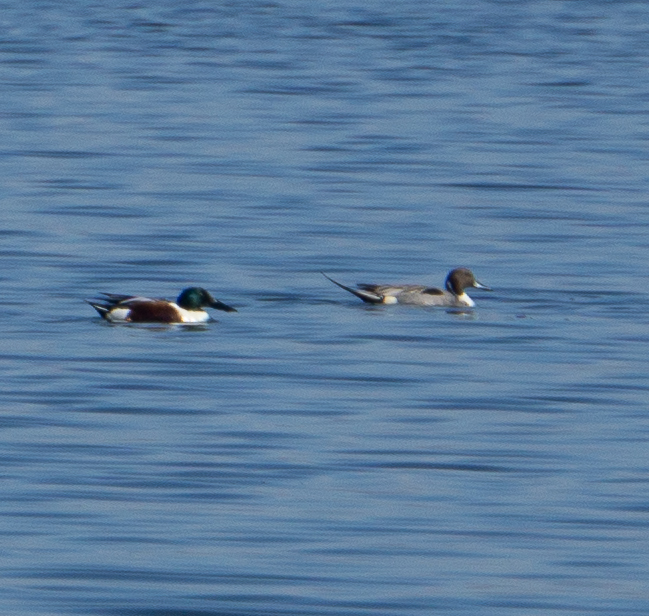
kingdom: Animalia
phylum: Chordata
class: Aves
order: Anseriformes
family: Anatidae
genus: Anas
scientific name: Anas acuta
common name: Northern pintail
